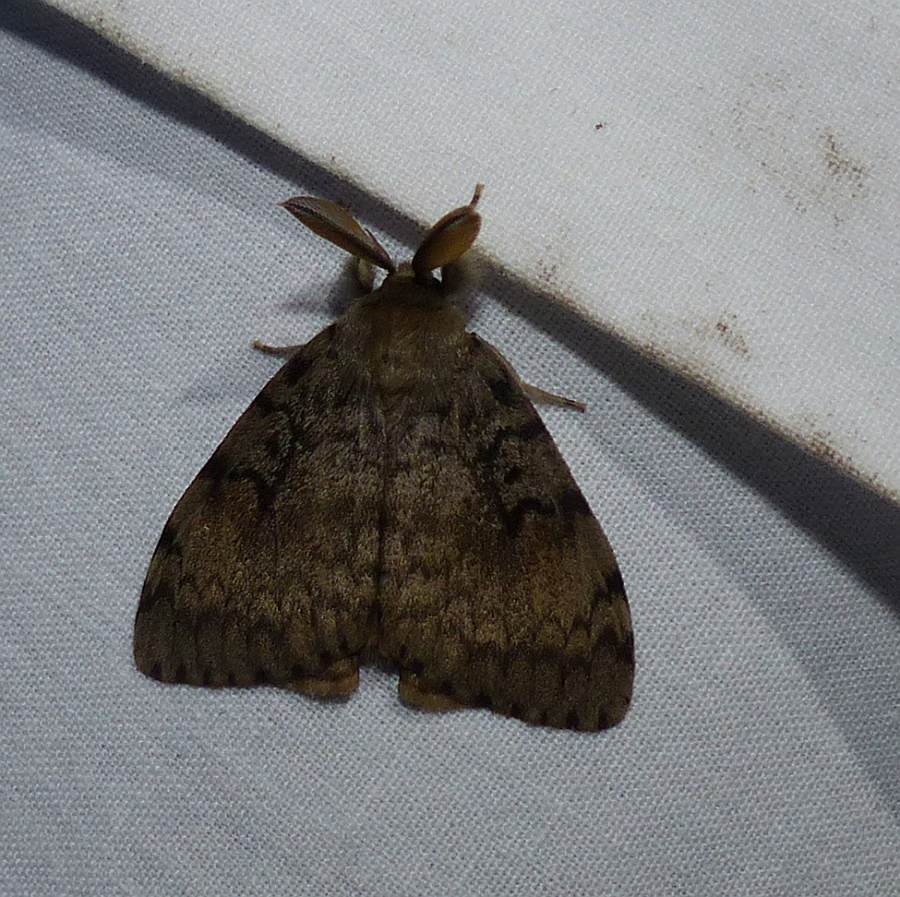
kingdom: Animalia
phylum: Arthropoda
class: Insecta
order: Lepidoptera
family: Erebidae
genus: Lymantria
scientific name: Lymantria dispar
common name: Gypsy moth
